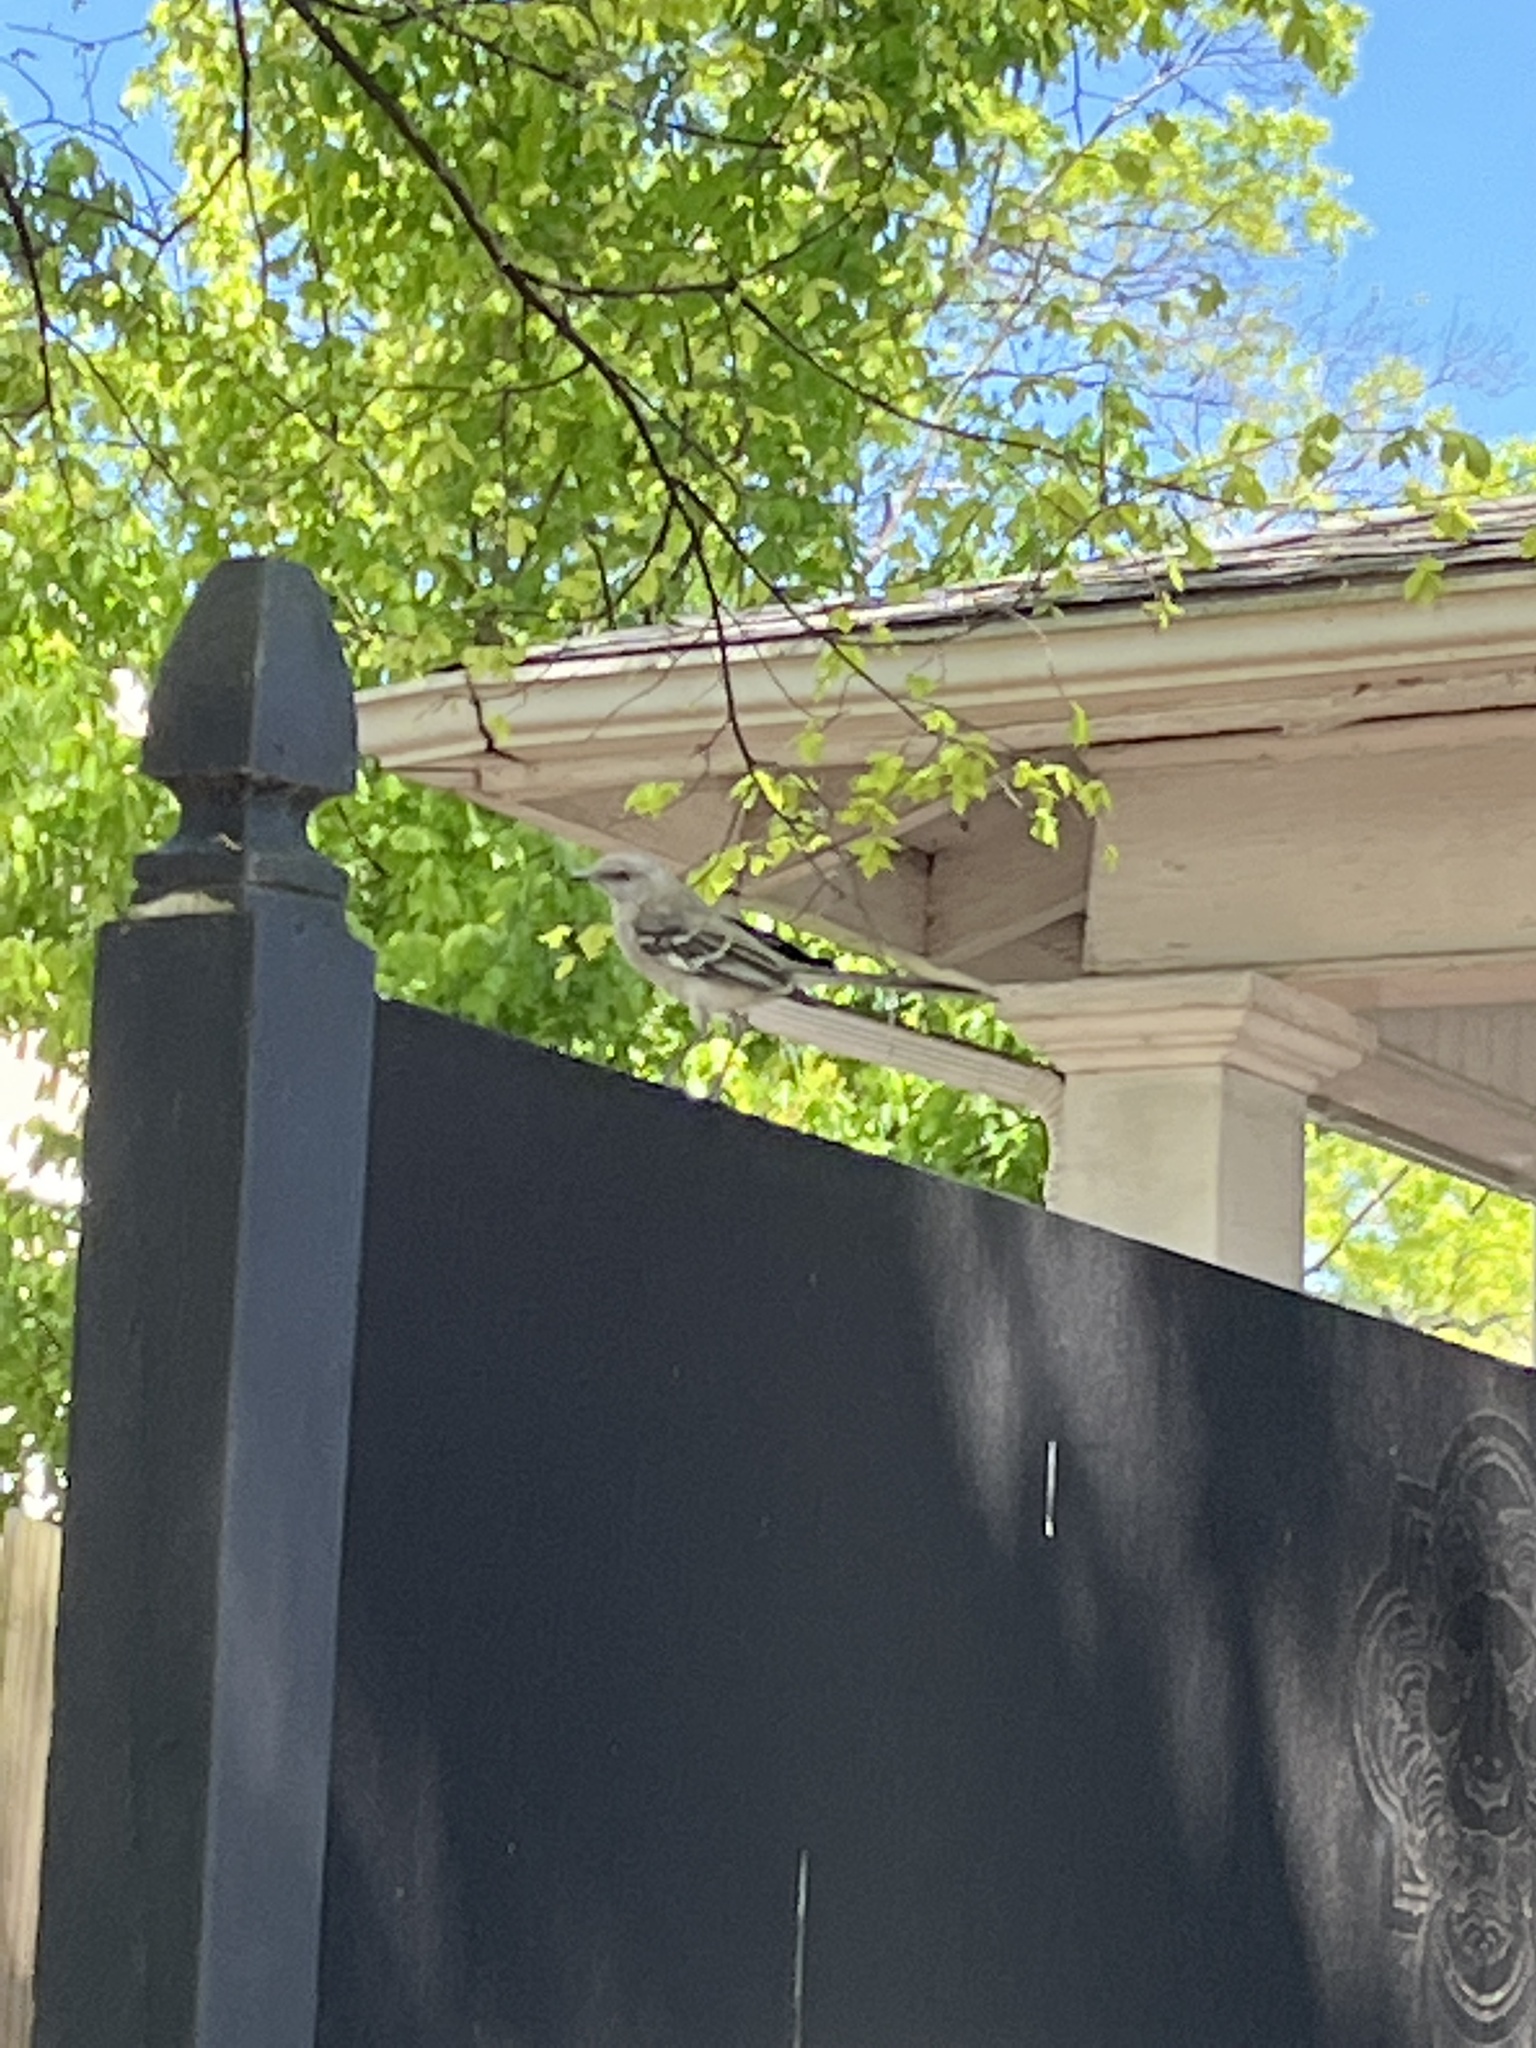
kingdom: Animalia
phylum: Chordata
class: Aves
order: Passeriformes
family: Mimidae
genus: Mimus
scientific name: Mimus polyglottos
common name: Northern mockingbird
